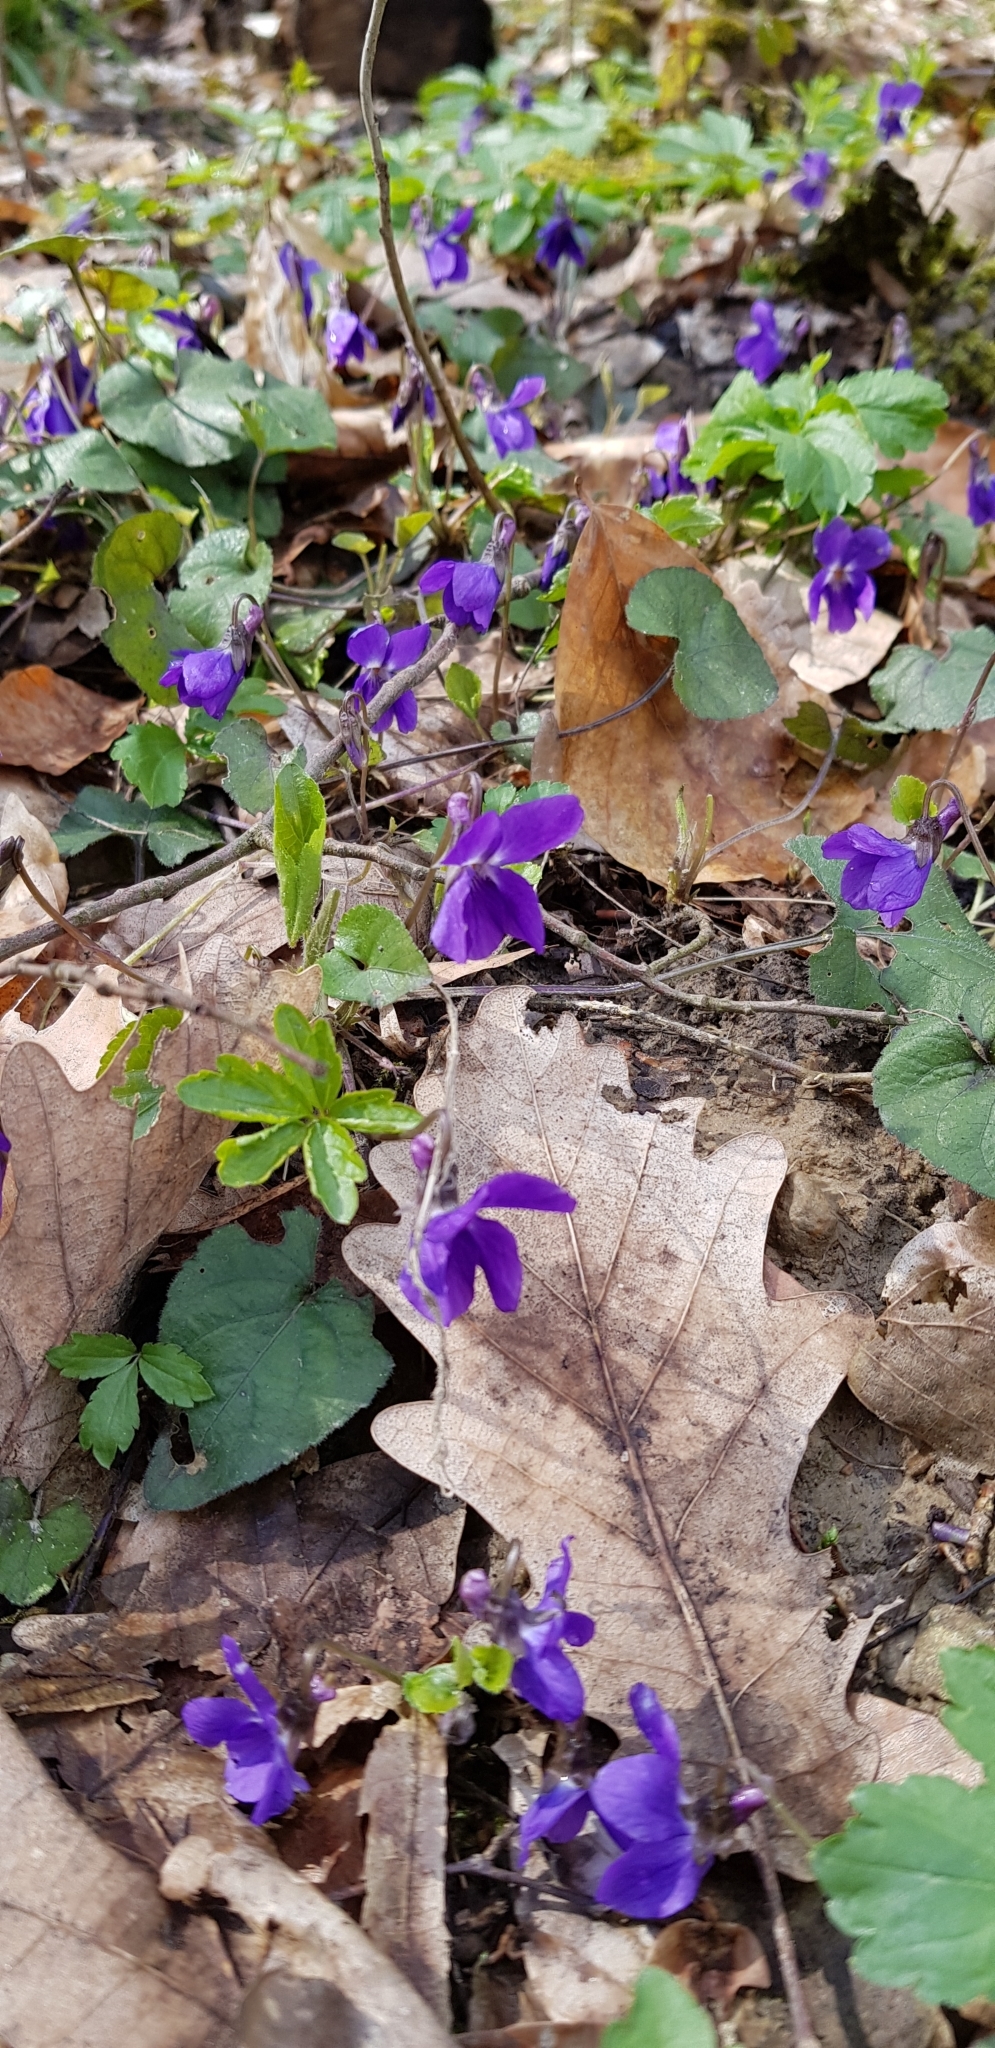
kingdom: Plantae
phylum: Tracheophyta
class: Magnoliopsida
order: Malpighiales
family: Violaceae
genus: Viola
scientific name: Viola alba
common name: White violet
